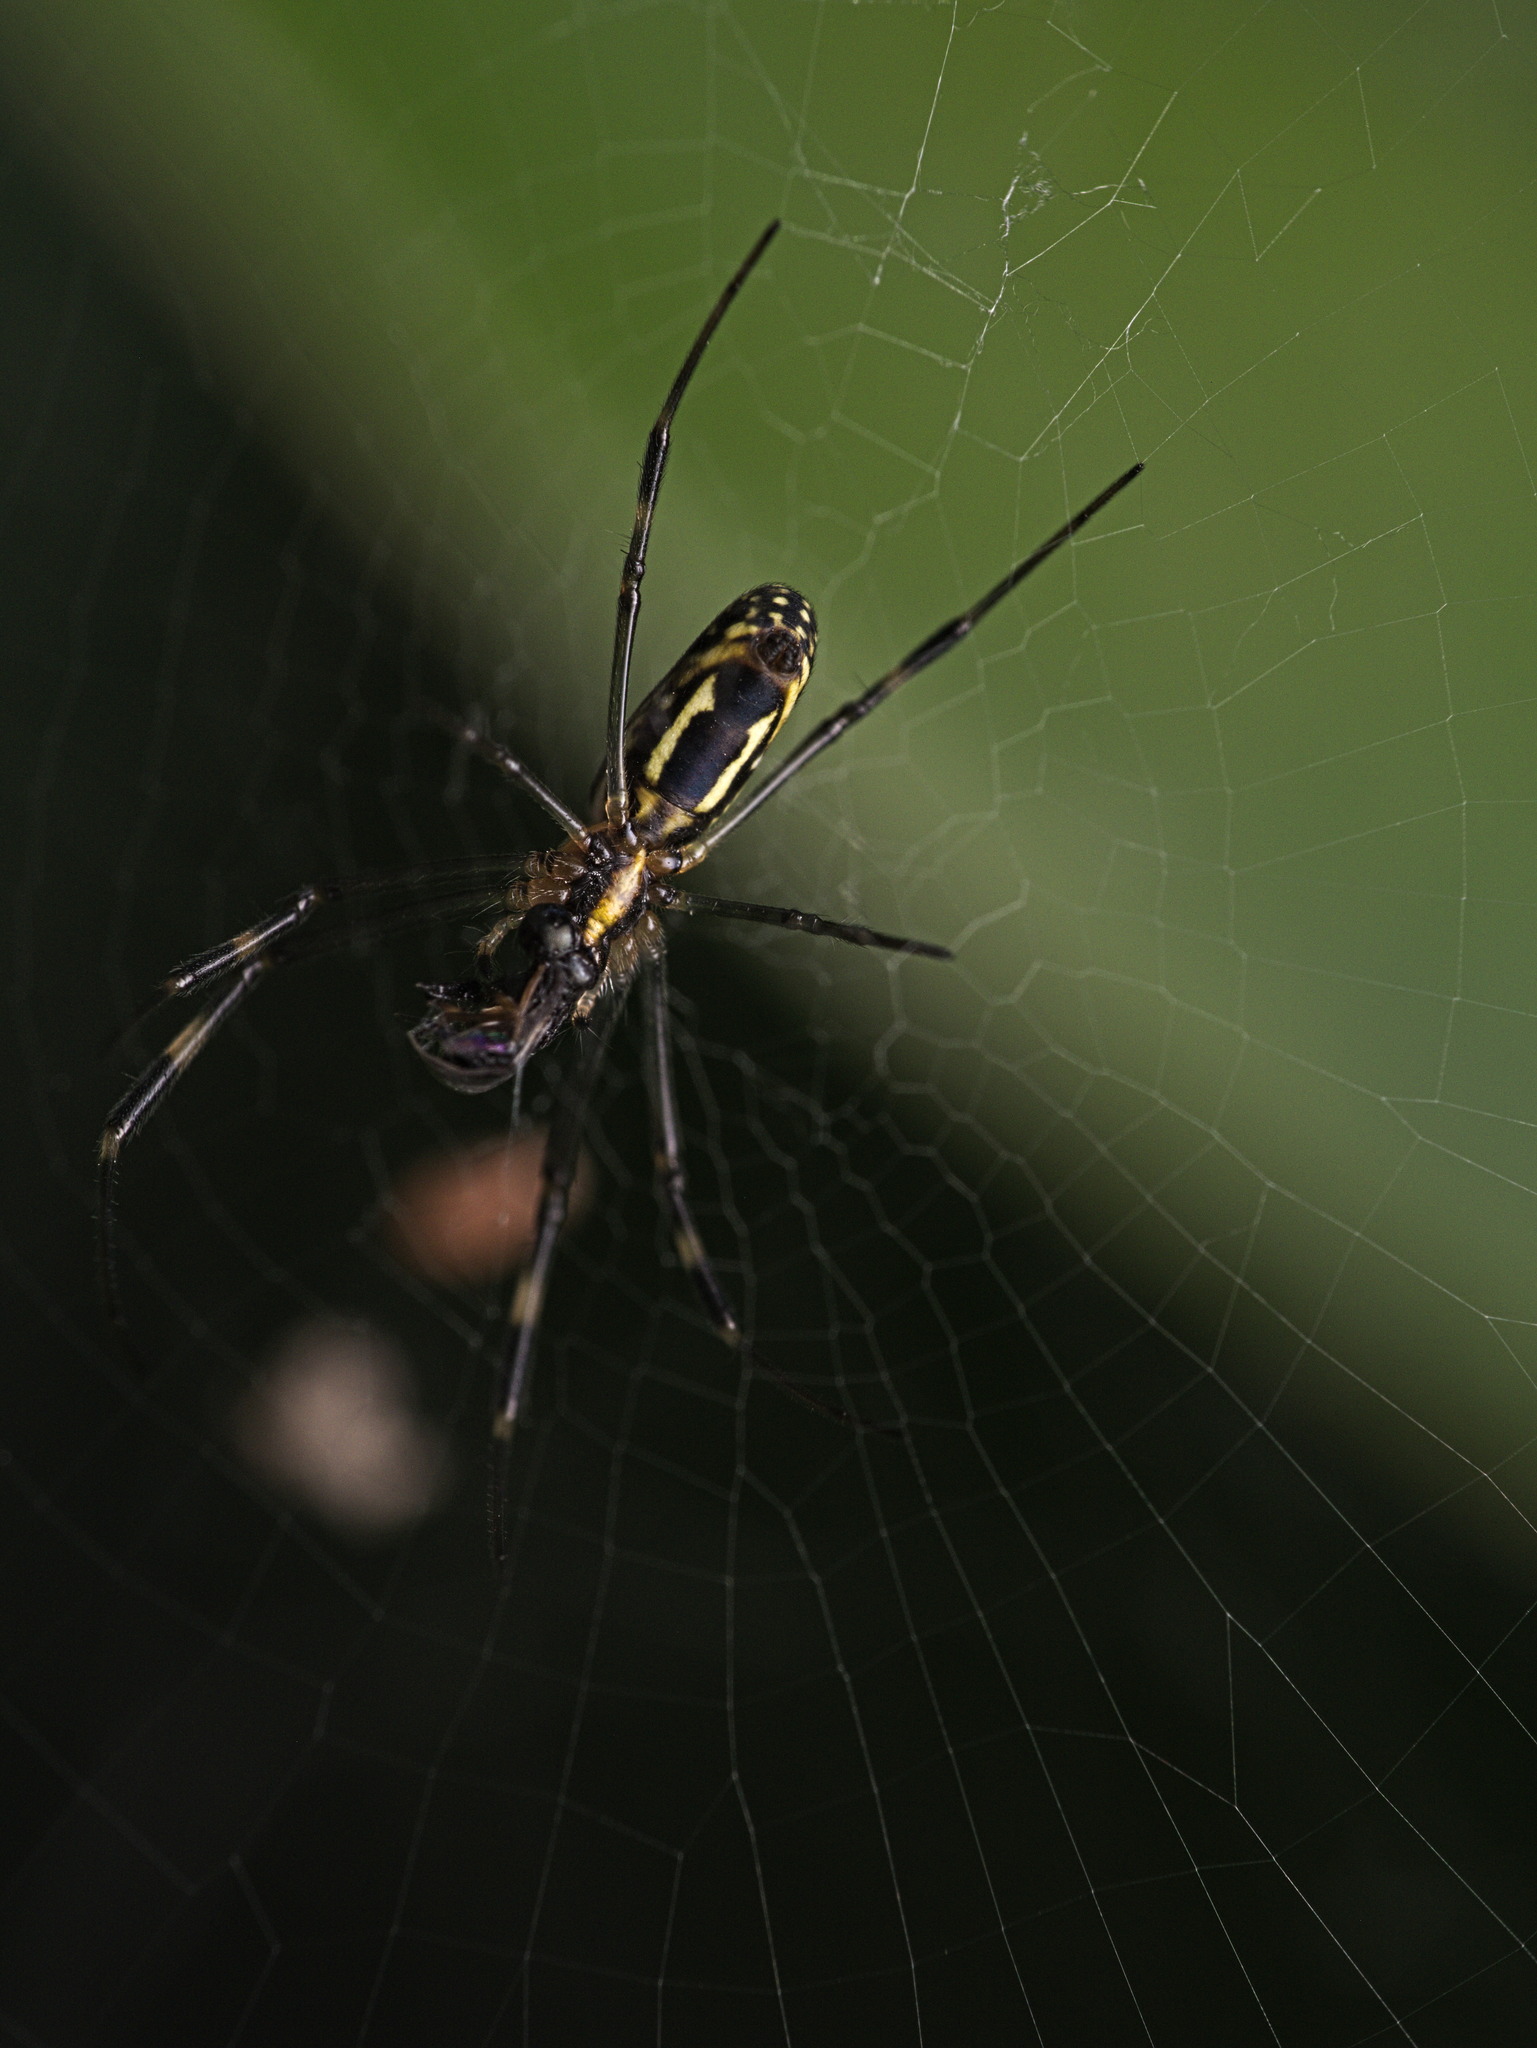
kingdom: Animalia
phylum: Arthropoda
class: Arachnida
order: Araneae
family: Araneidae
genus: Trichonephila
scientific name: Trichonephila clavipes
